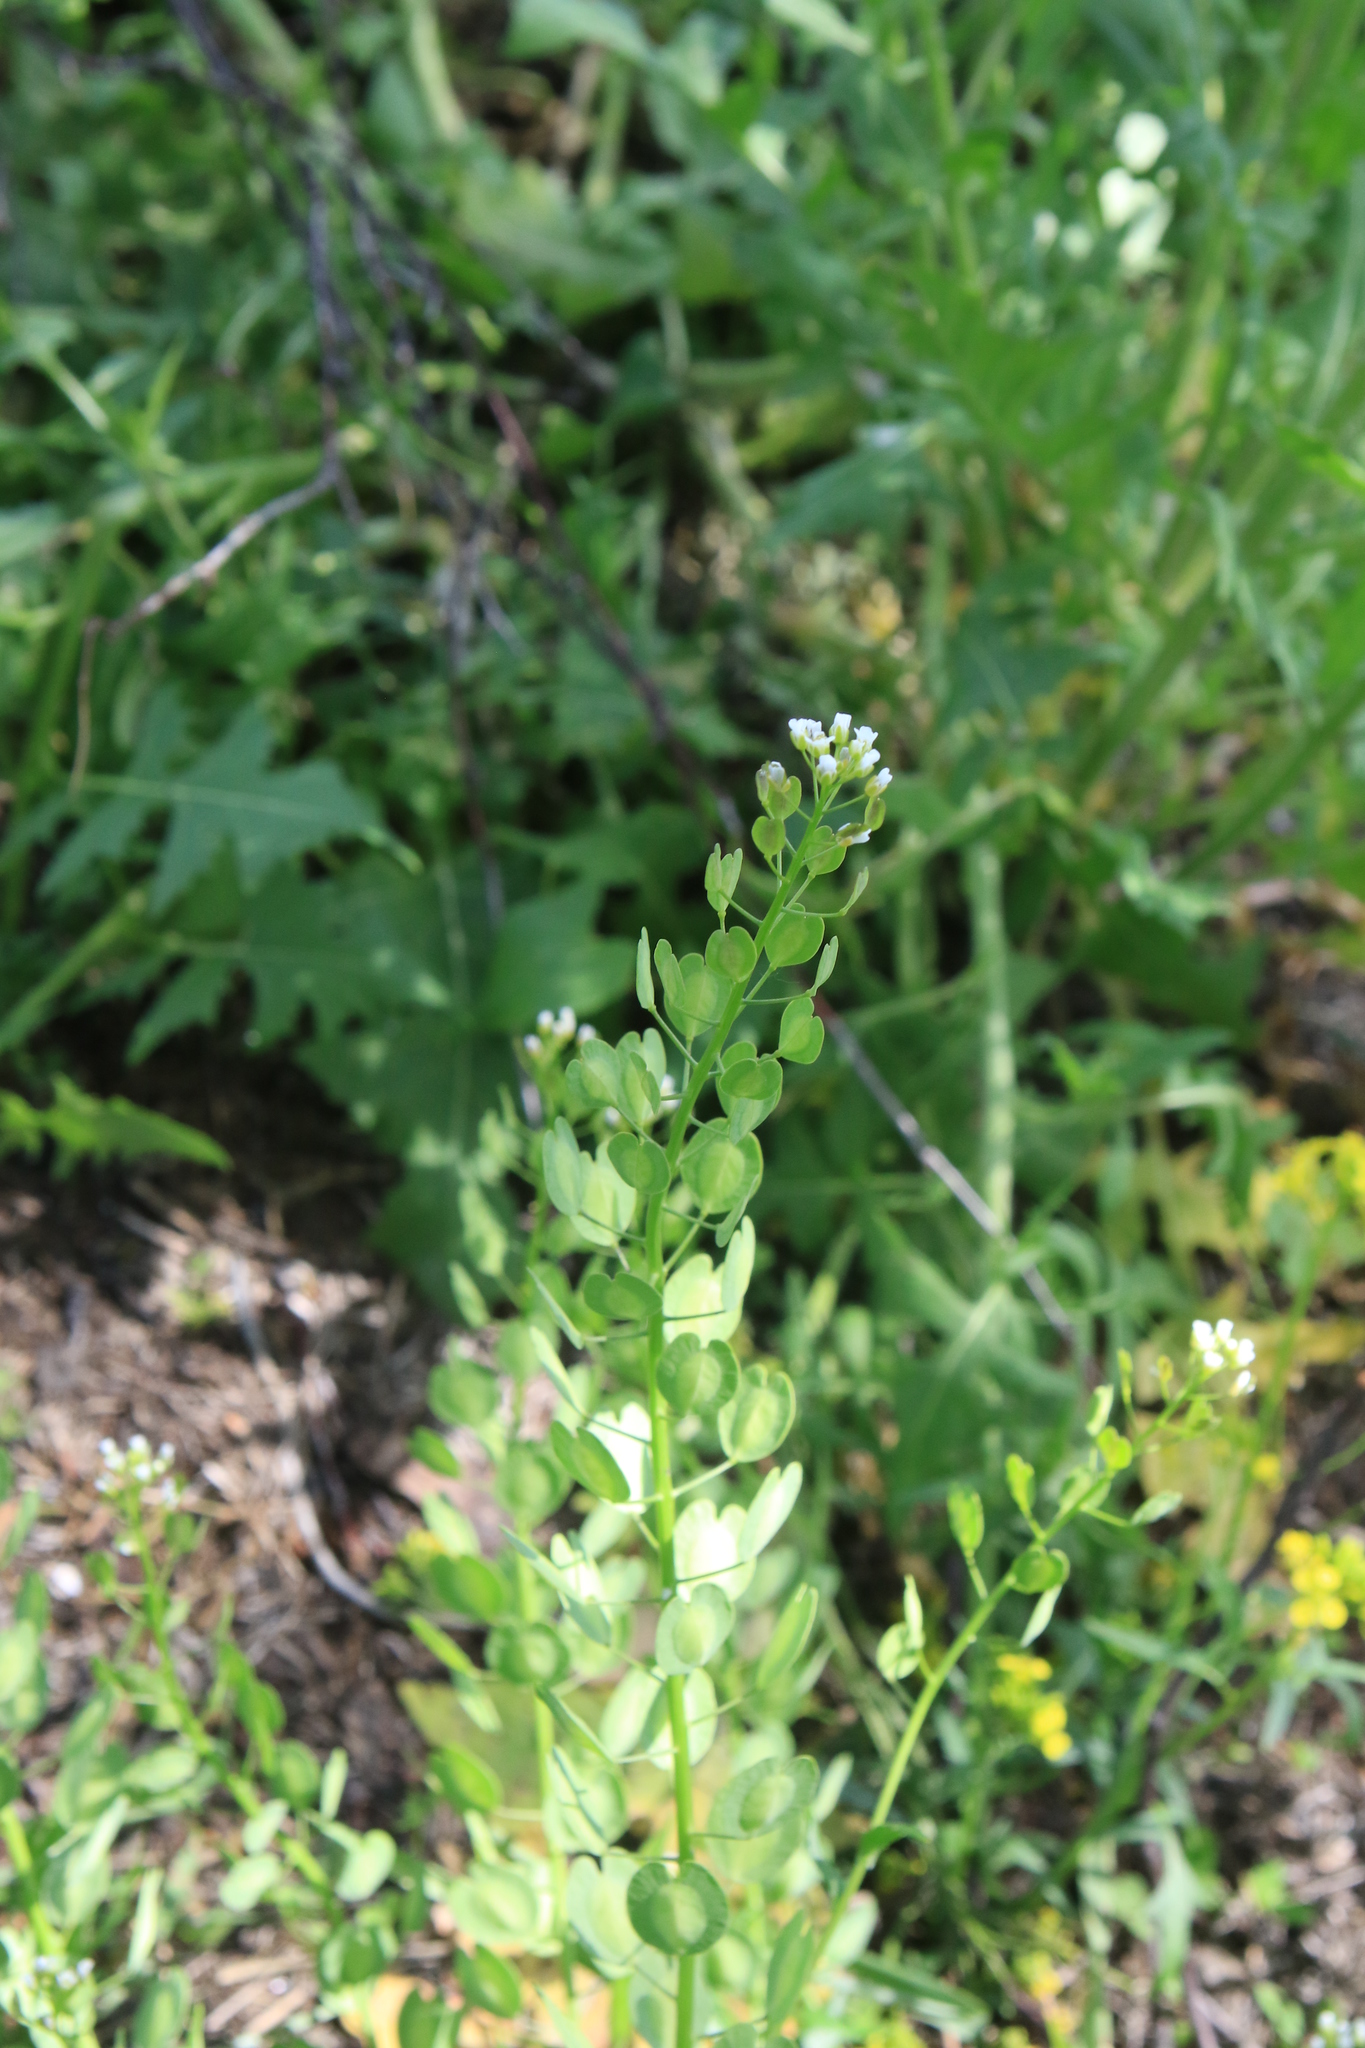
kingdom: Plantae
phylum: Tracheophyta
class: Magnoliopsida
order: Brassicales
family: Brassicaceae
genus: Thlaspi
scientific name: Thlaspi arvense
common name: Field pennycress
